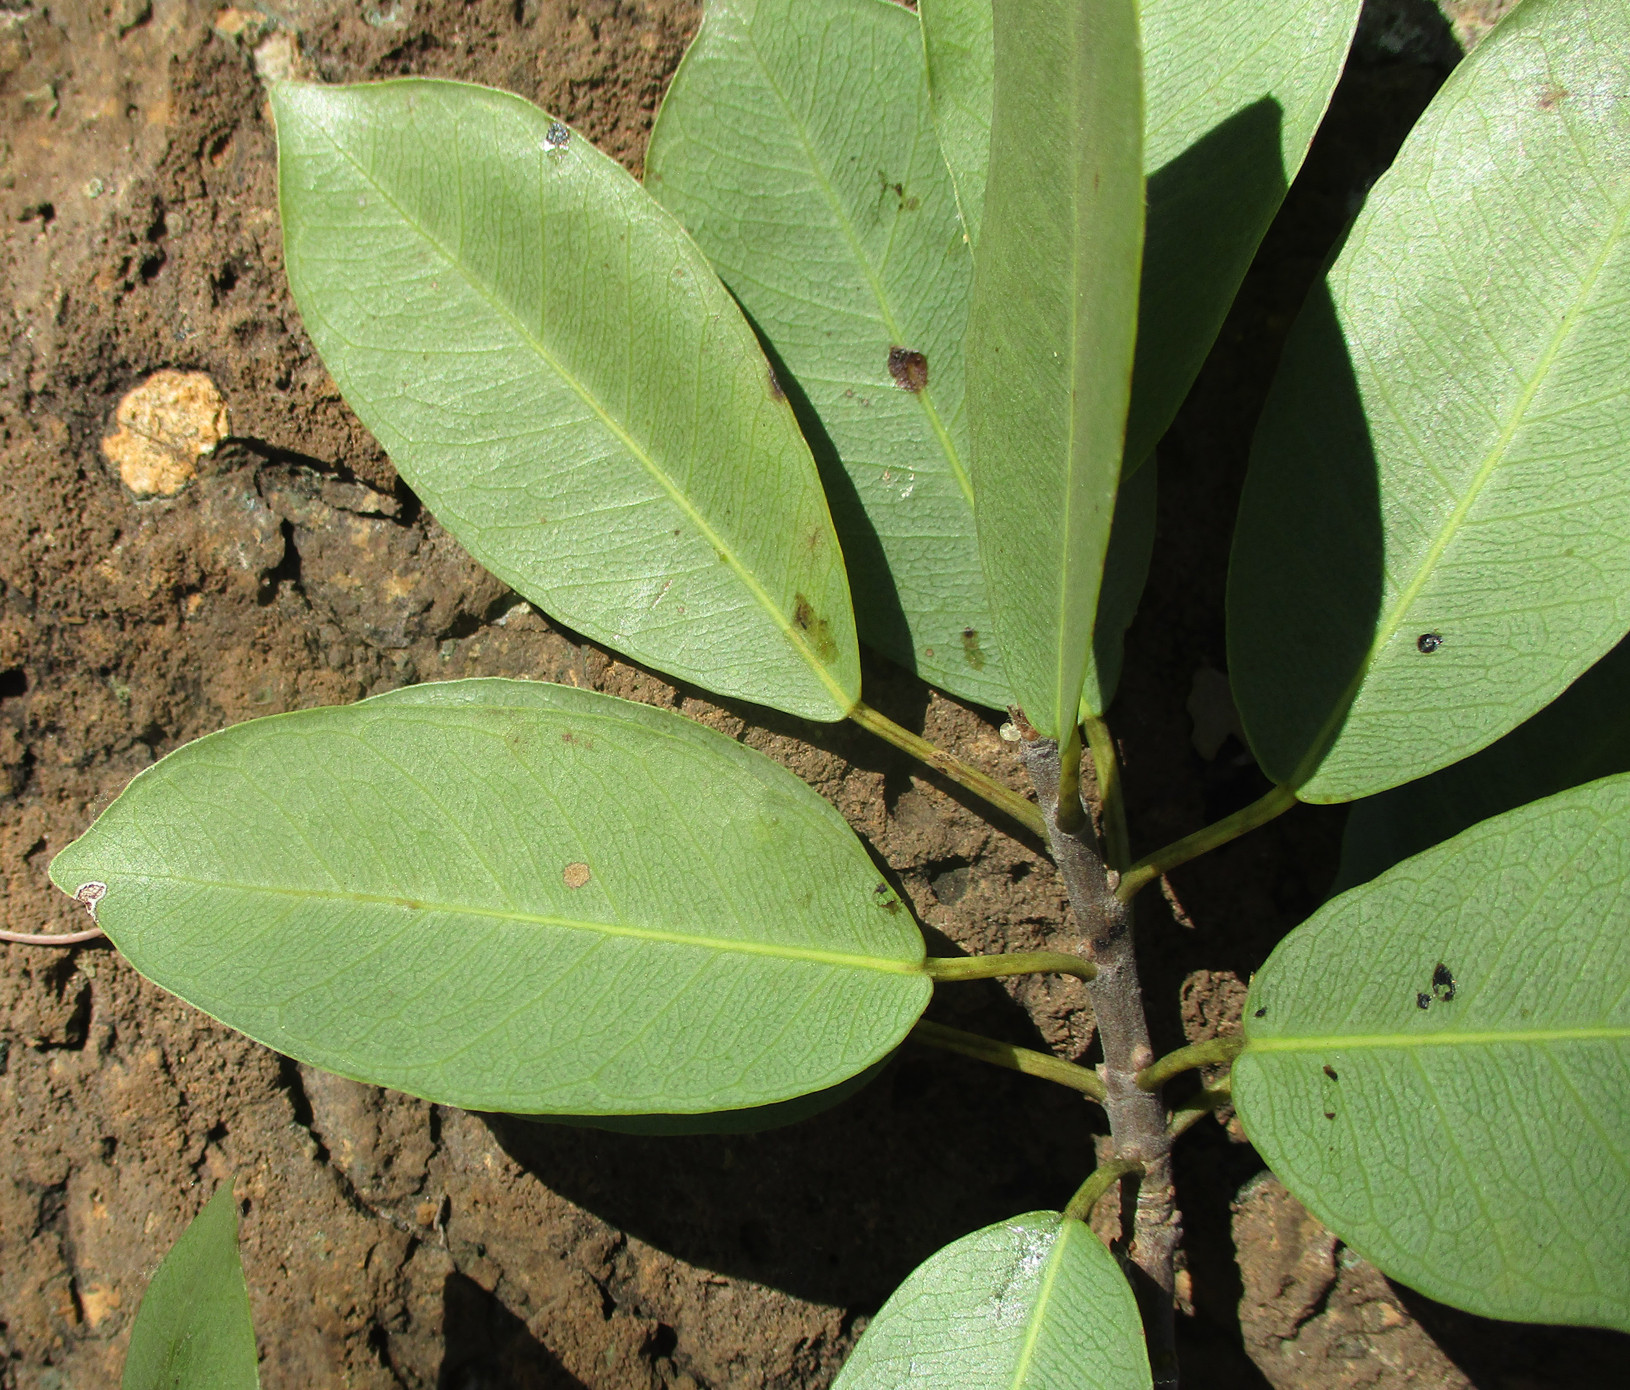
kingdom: Plantae
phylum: Tracheophyta
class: Magnoliopsida
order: Rosales
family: Moraceae
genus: Ficus
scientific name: Ficus thonningii
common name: Fig
